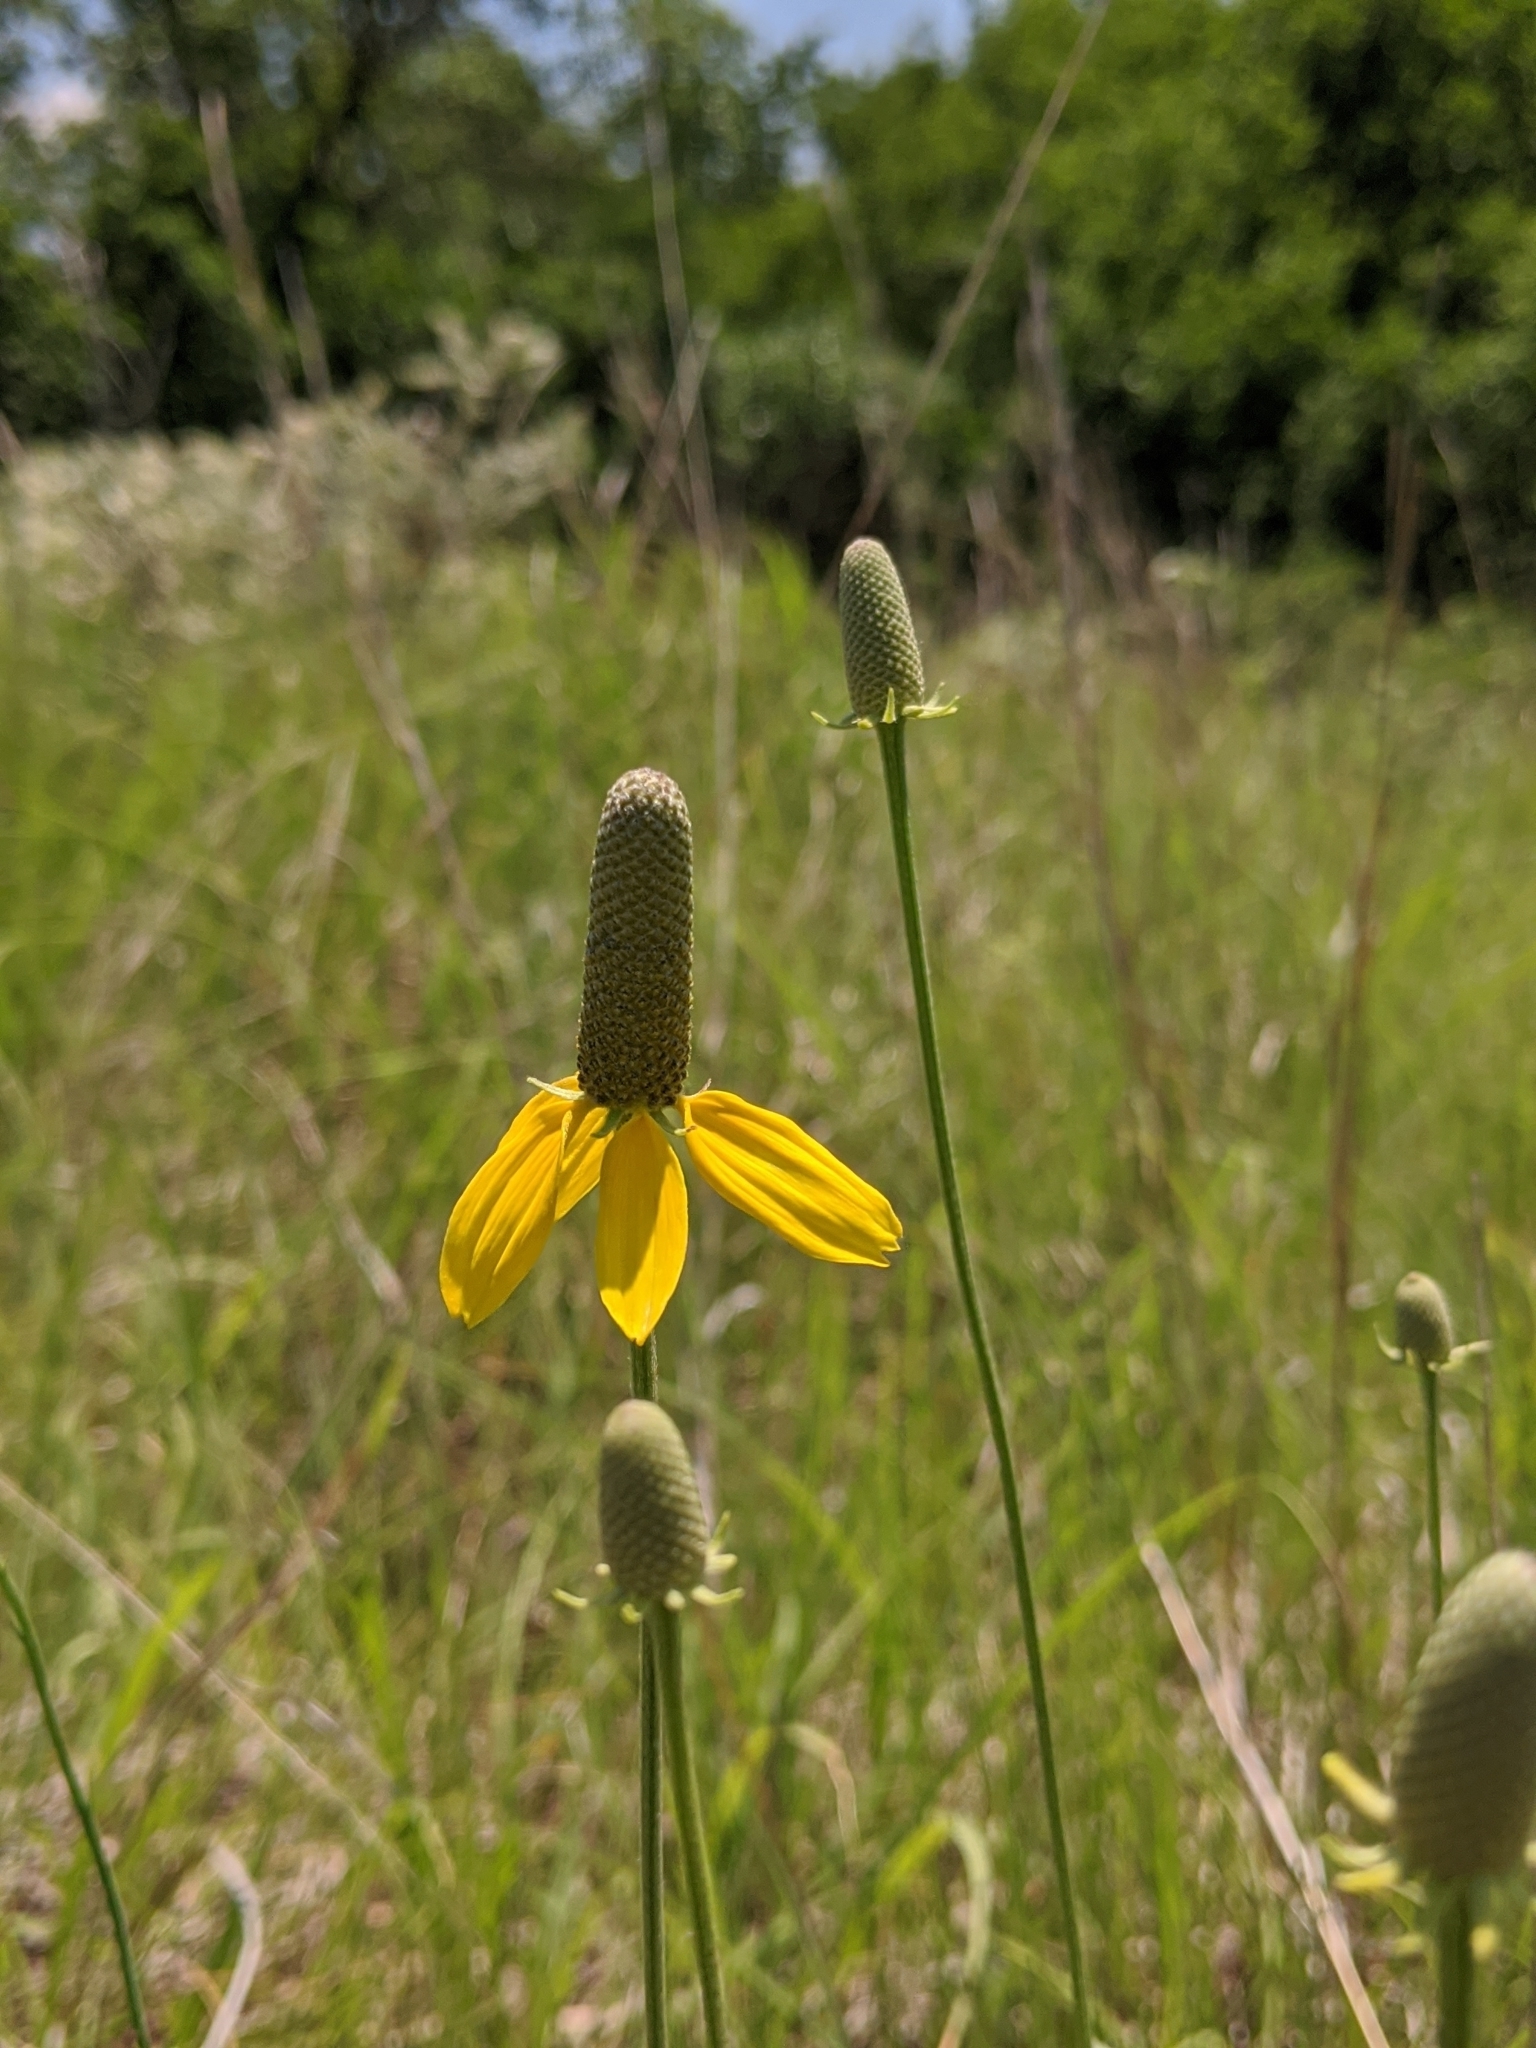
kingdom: Plantae
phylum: Tracheophyta
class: Magnoliopsida
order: Asterales
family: Asteraceae
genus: Ratibida
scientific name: Ratibida columnifera
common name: Prairie coneflower
